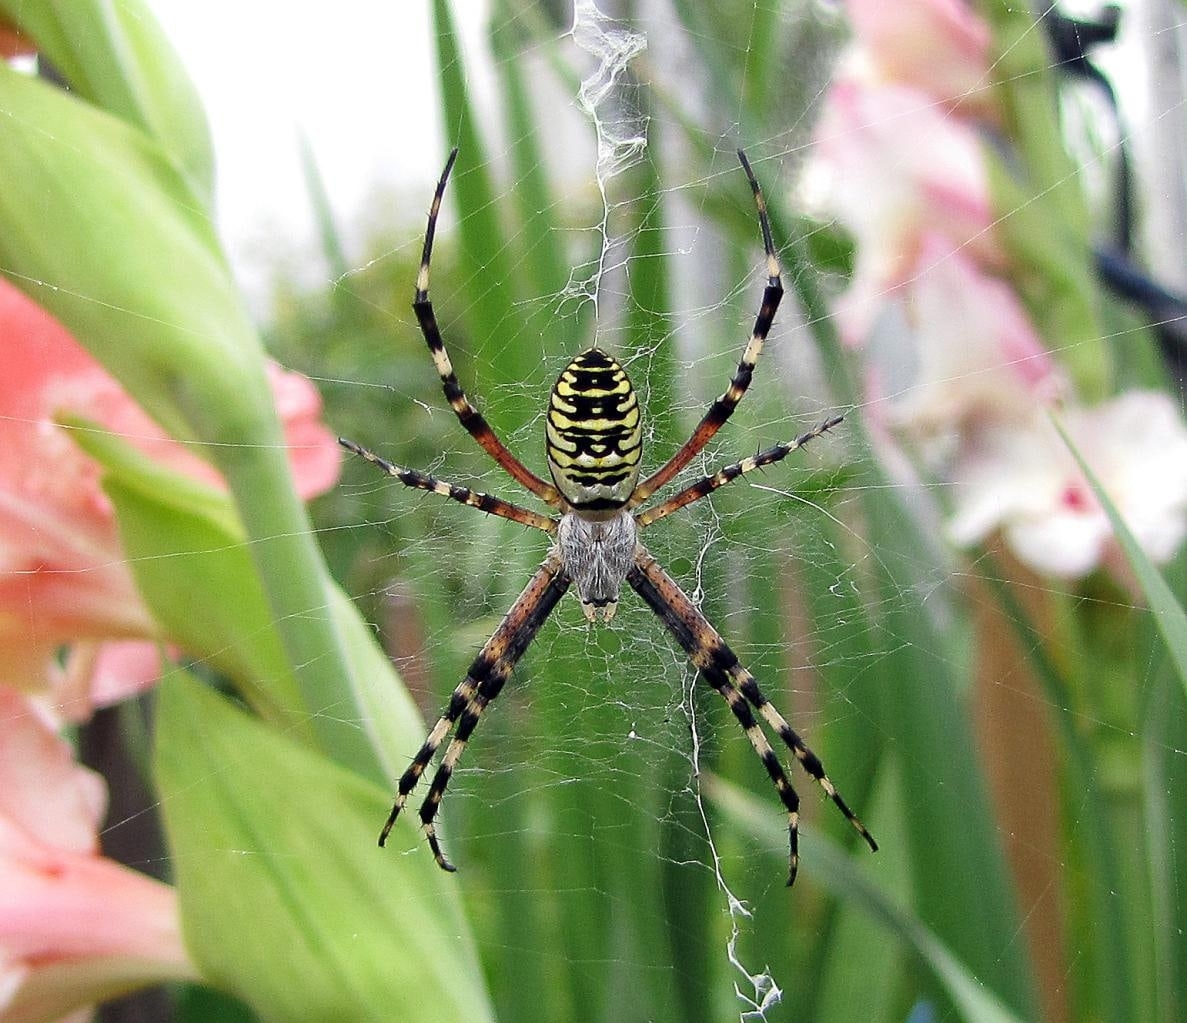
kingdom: Animalia
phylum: Arthropoda
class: Arachnida
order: Araneae
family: Araneidae
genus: Argiope
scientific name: Argiope bruennichi
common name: Wasp spider
